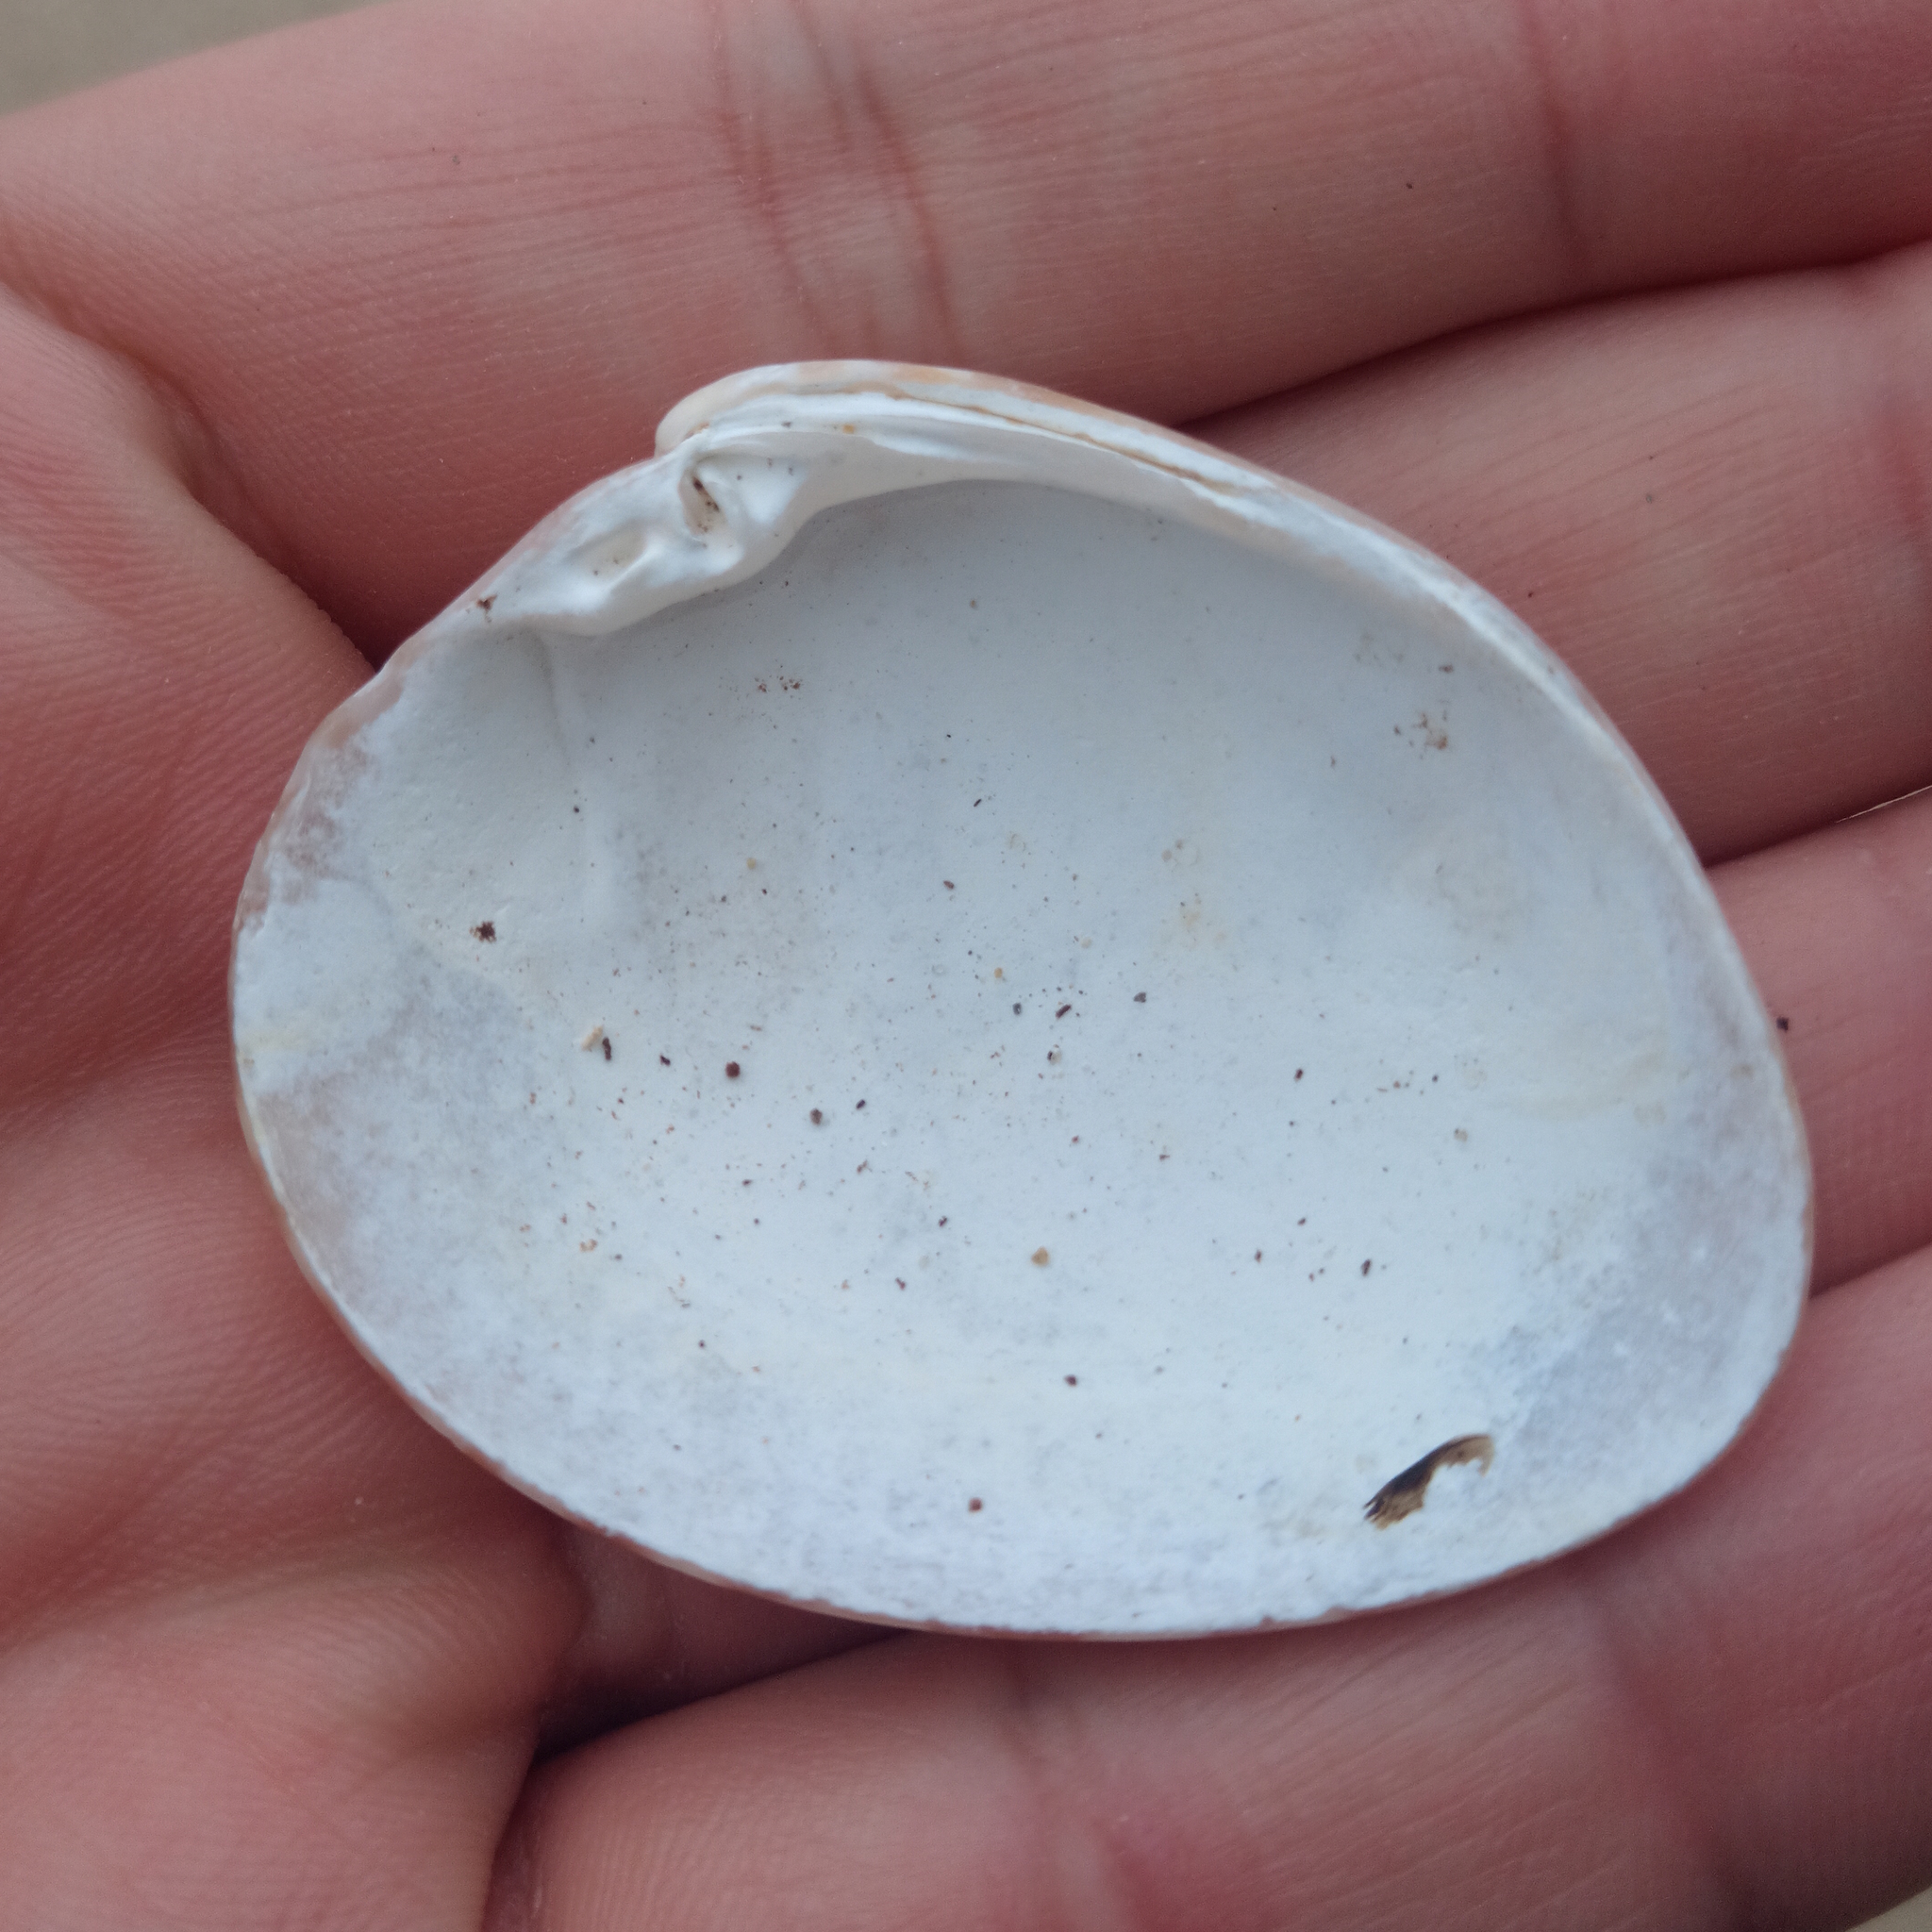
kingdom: Animalia
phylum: Mollusca
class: Bivalvia
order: Venerida
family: Veneridae
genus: Megapitaria
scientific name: Megapitaria maculata
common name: Calico clam
